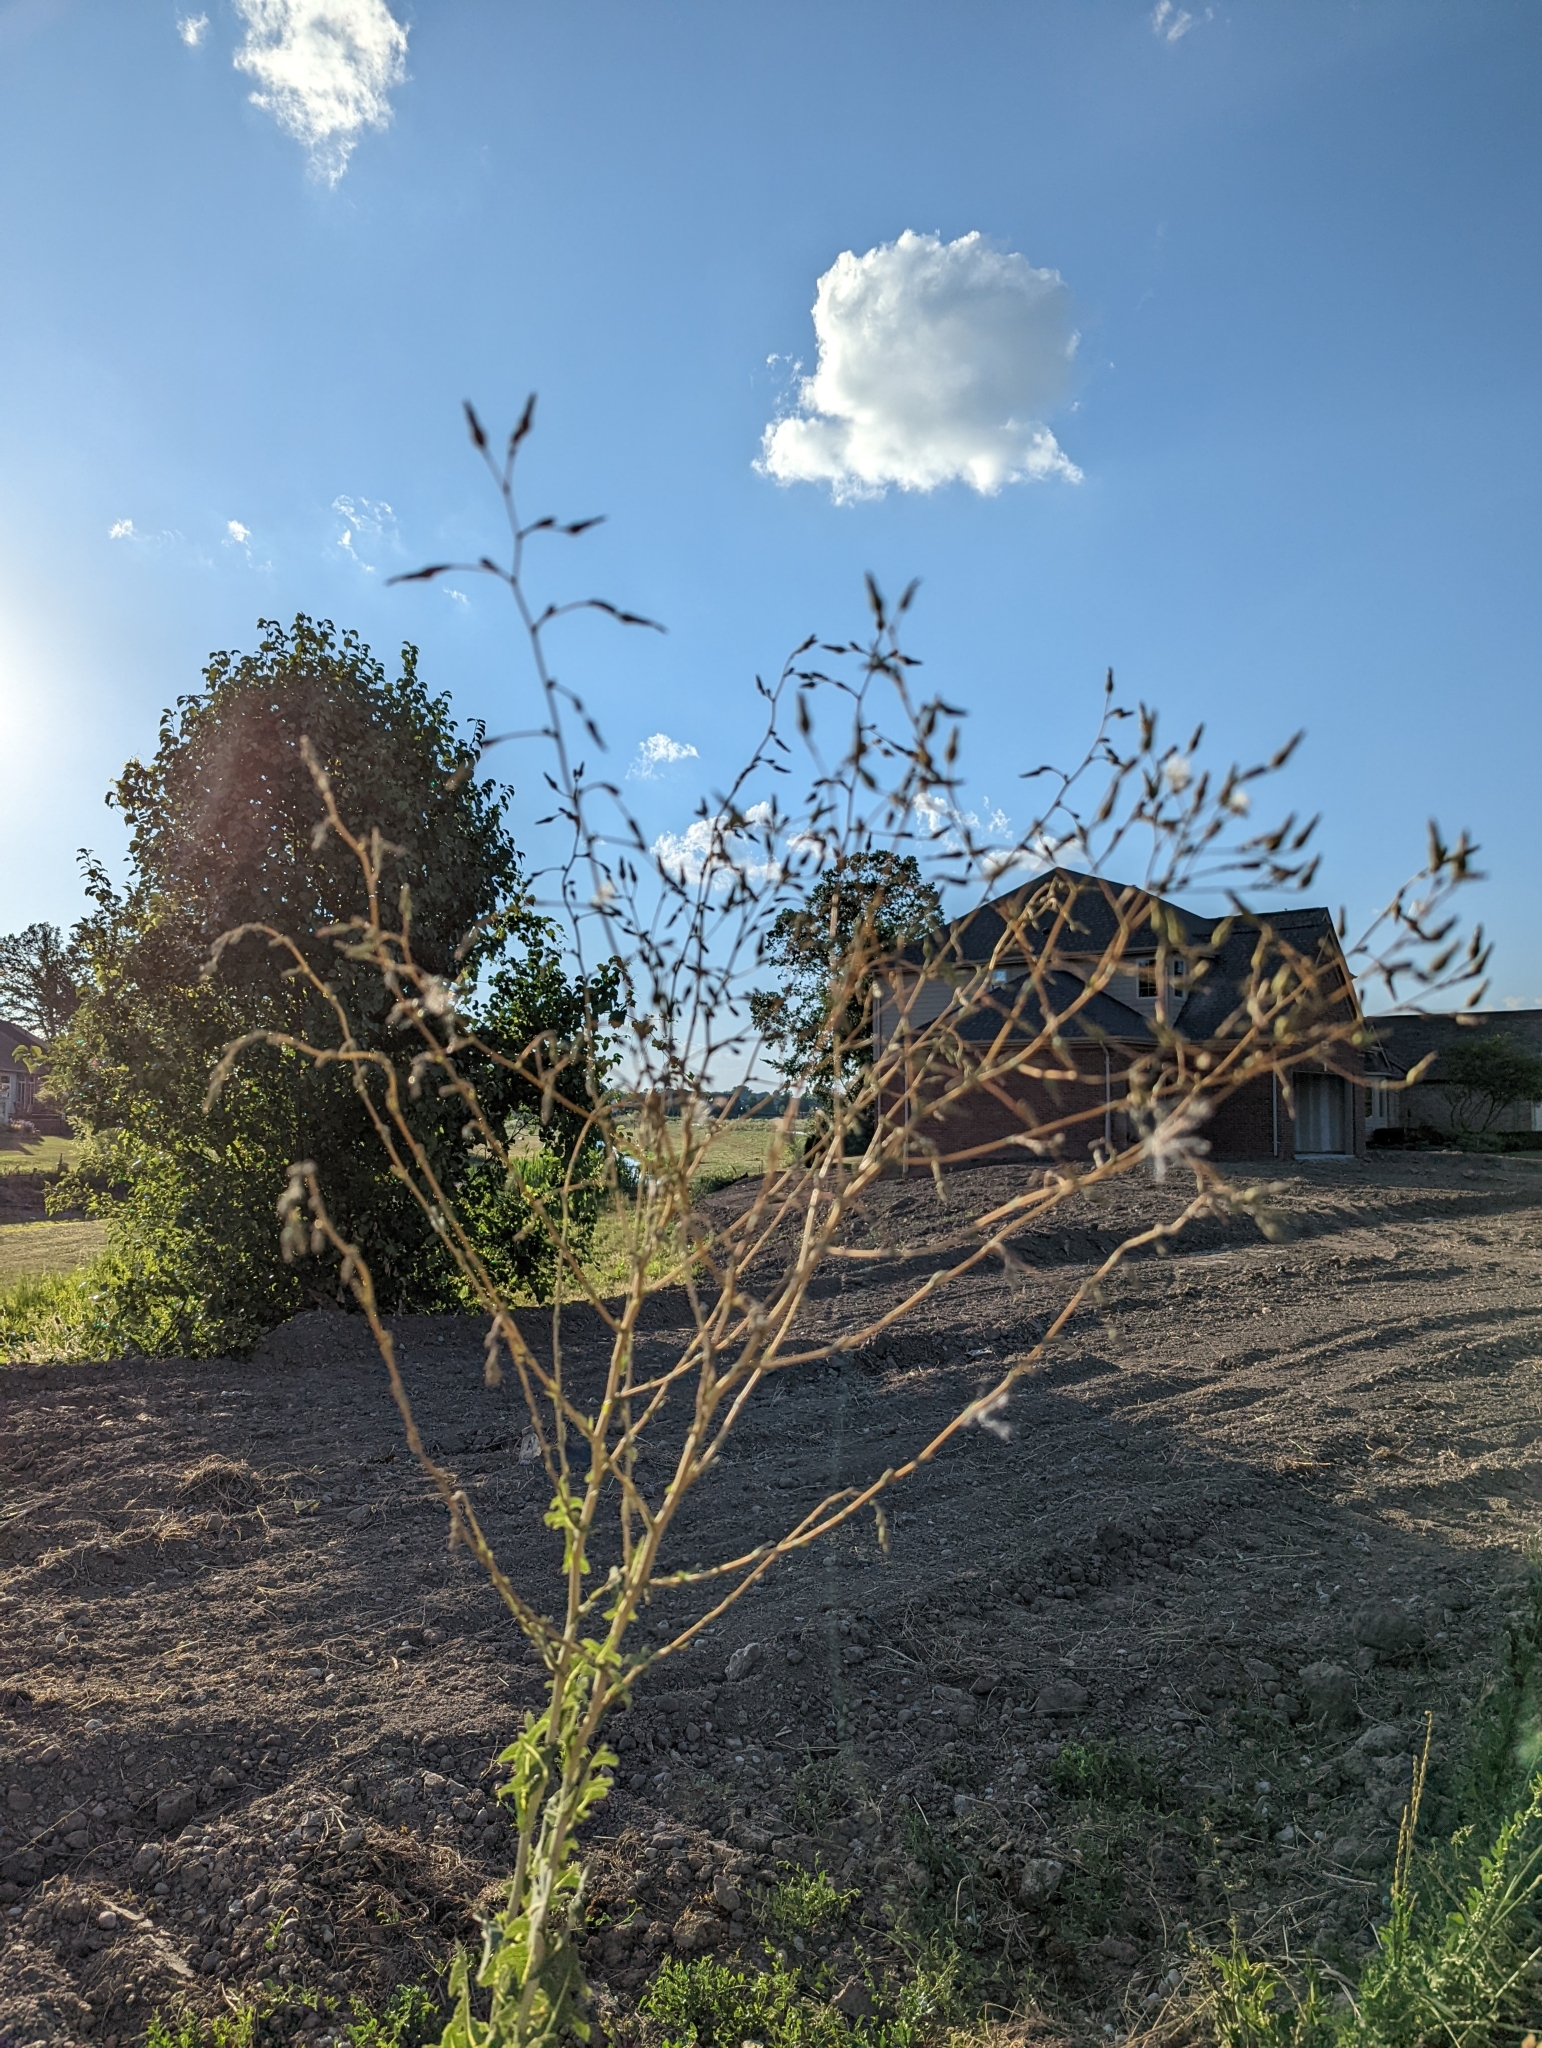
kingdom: Plantae
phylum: Tracheophyta
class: Magnoliopsida
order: Asterales
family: Asteraceae
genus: Lactuca
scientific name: Lactuca serriola
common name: Prickly lettuce
